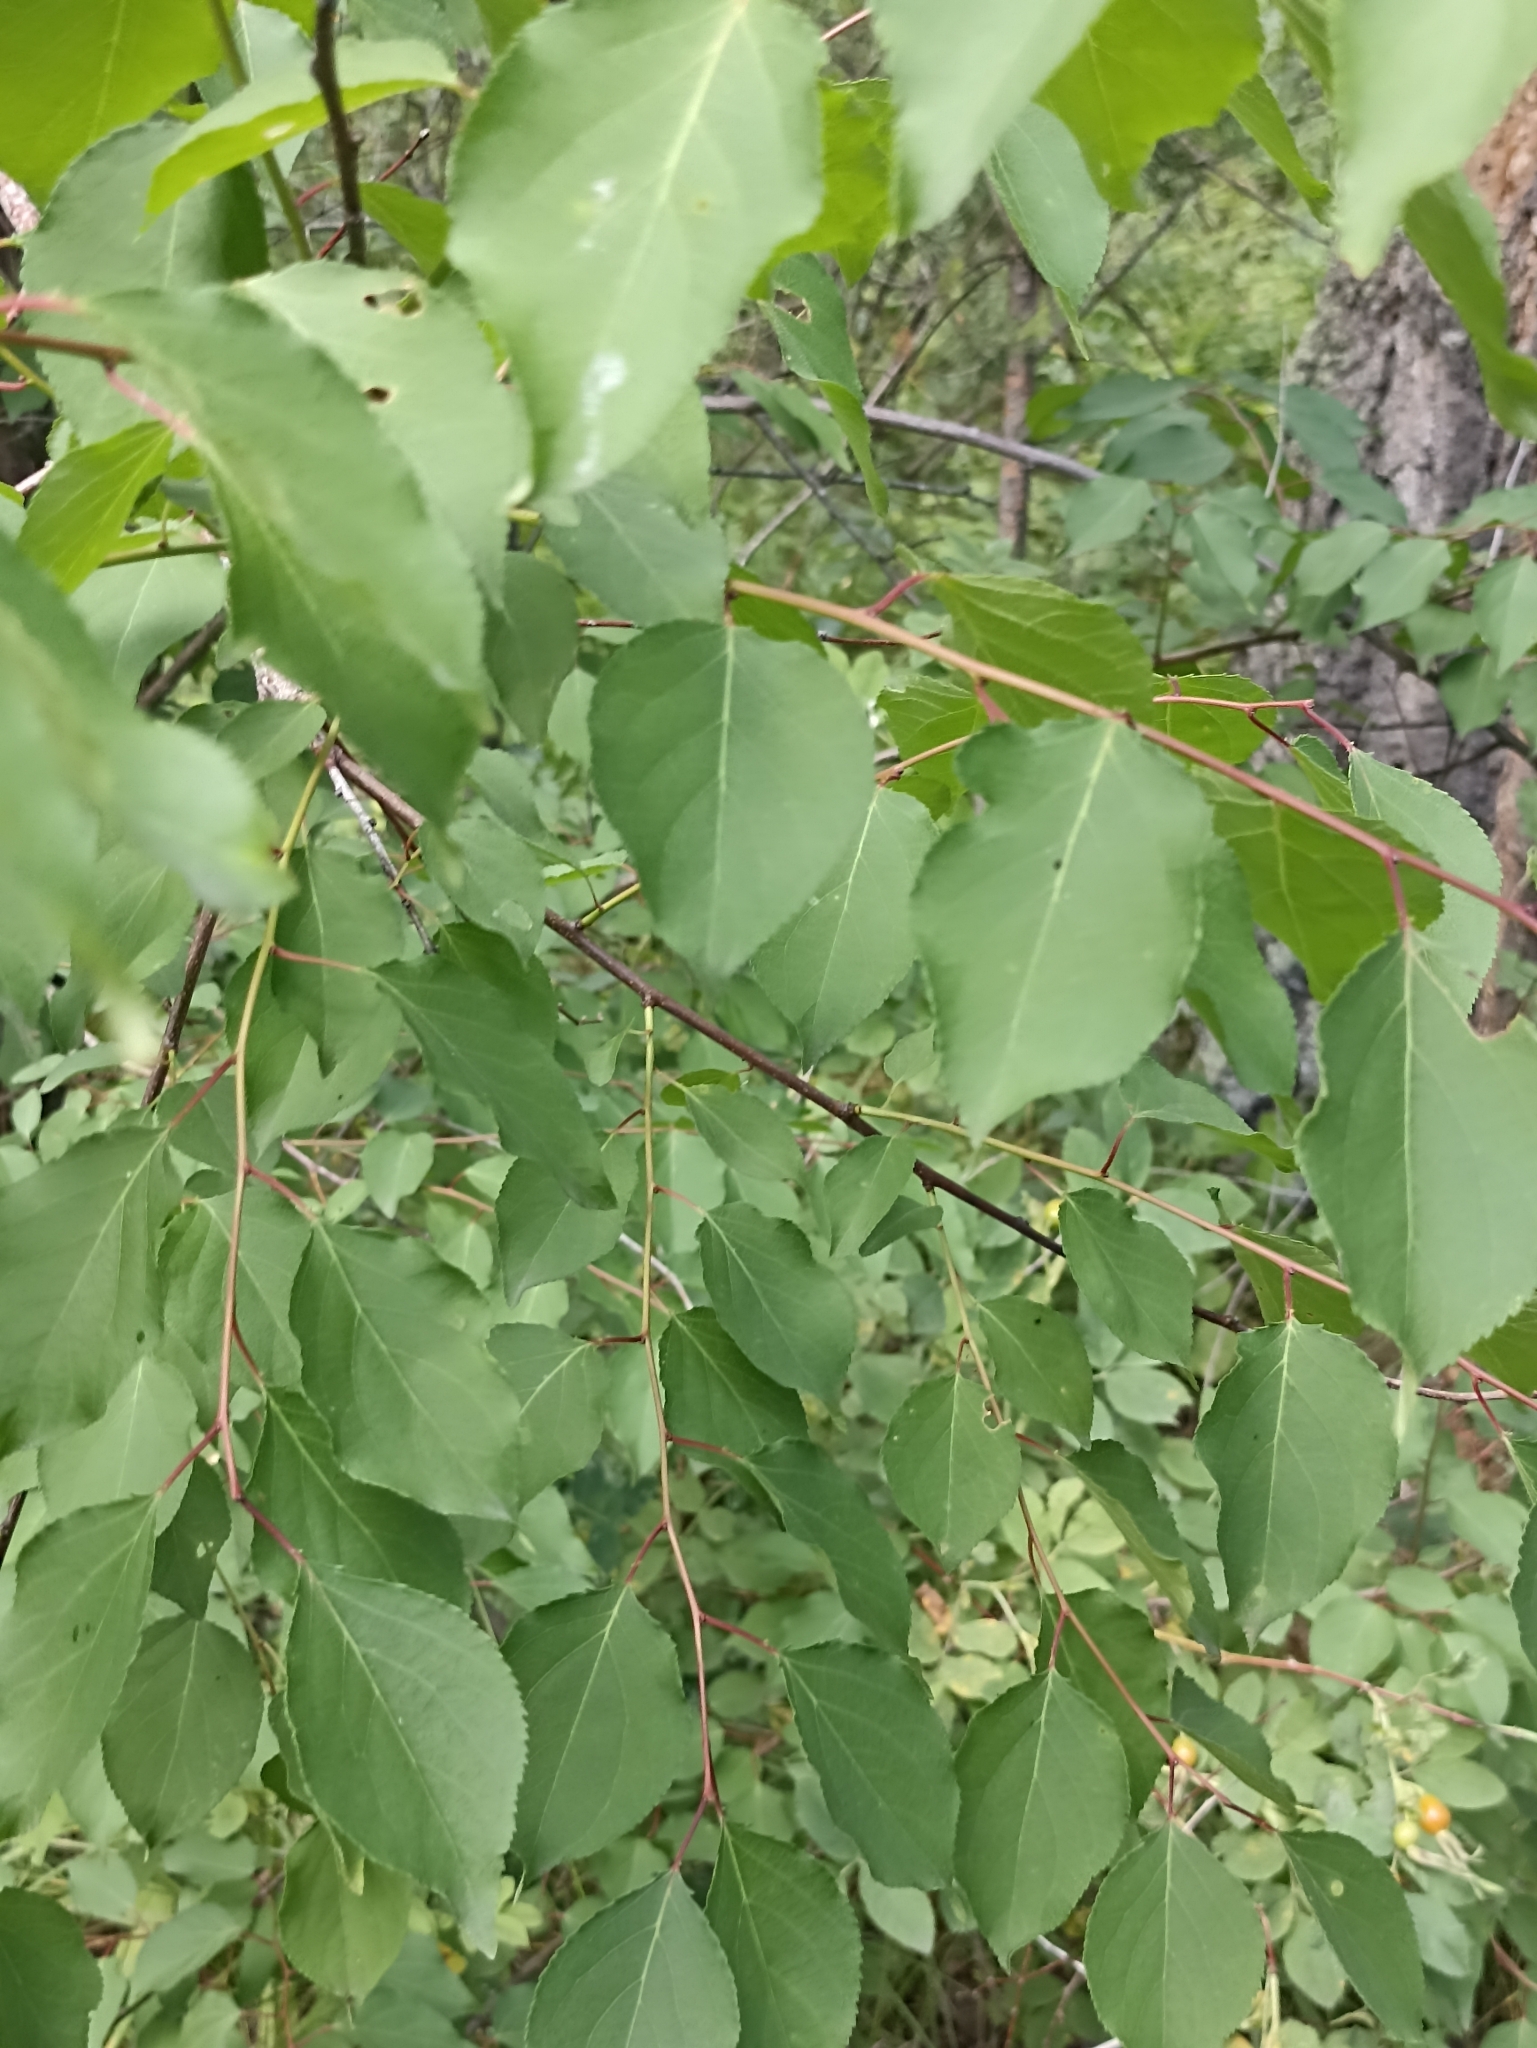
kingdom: Plantae
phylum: Tracheophyta
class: Magnoliopsida
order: Rosales
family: Rosaceae
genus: Malus
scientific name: Malus baccata
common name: Siberian crab
